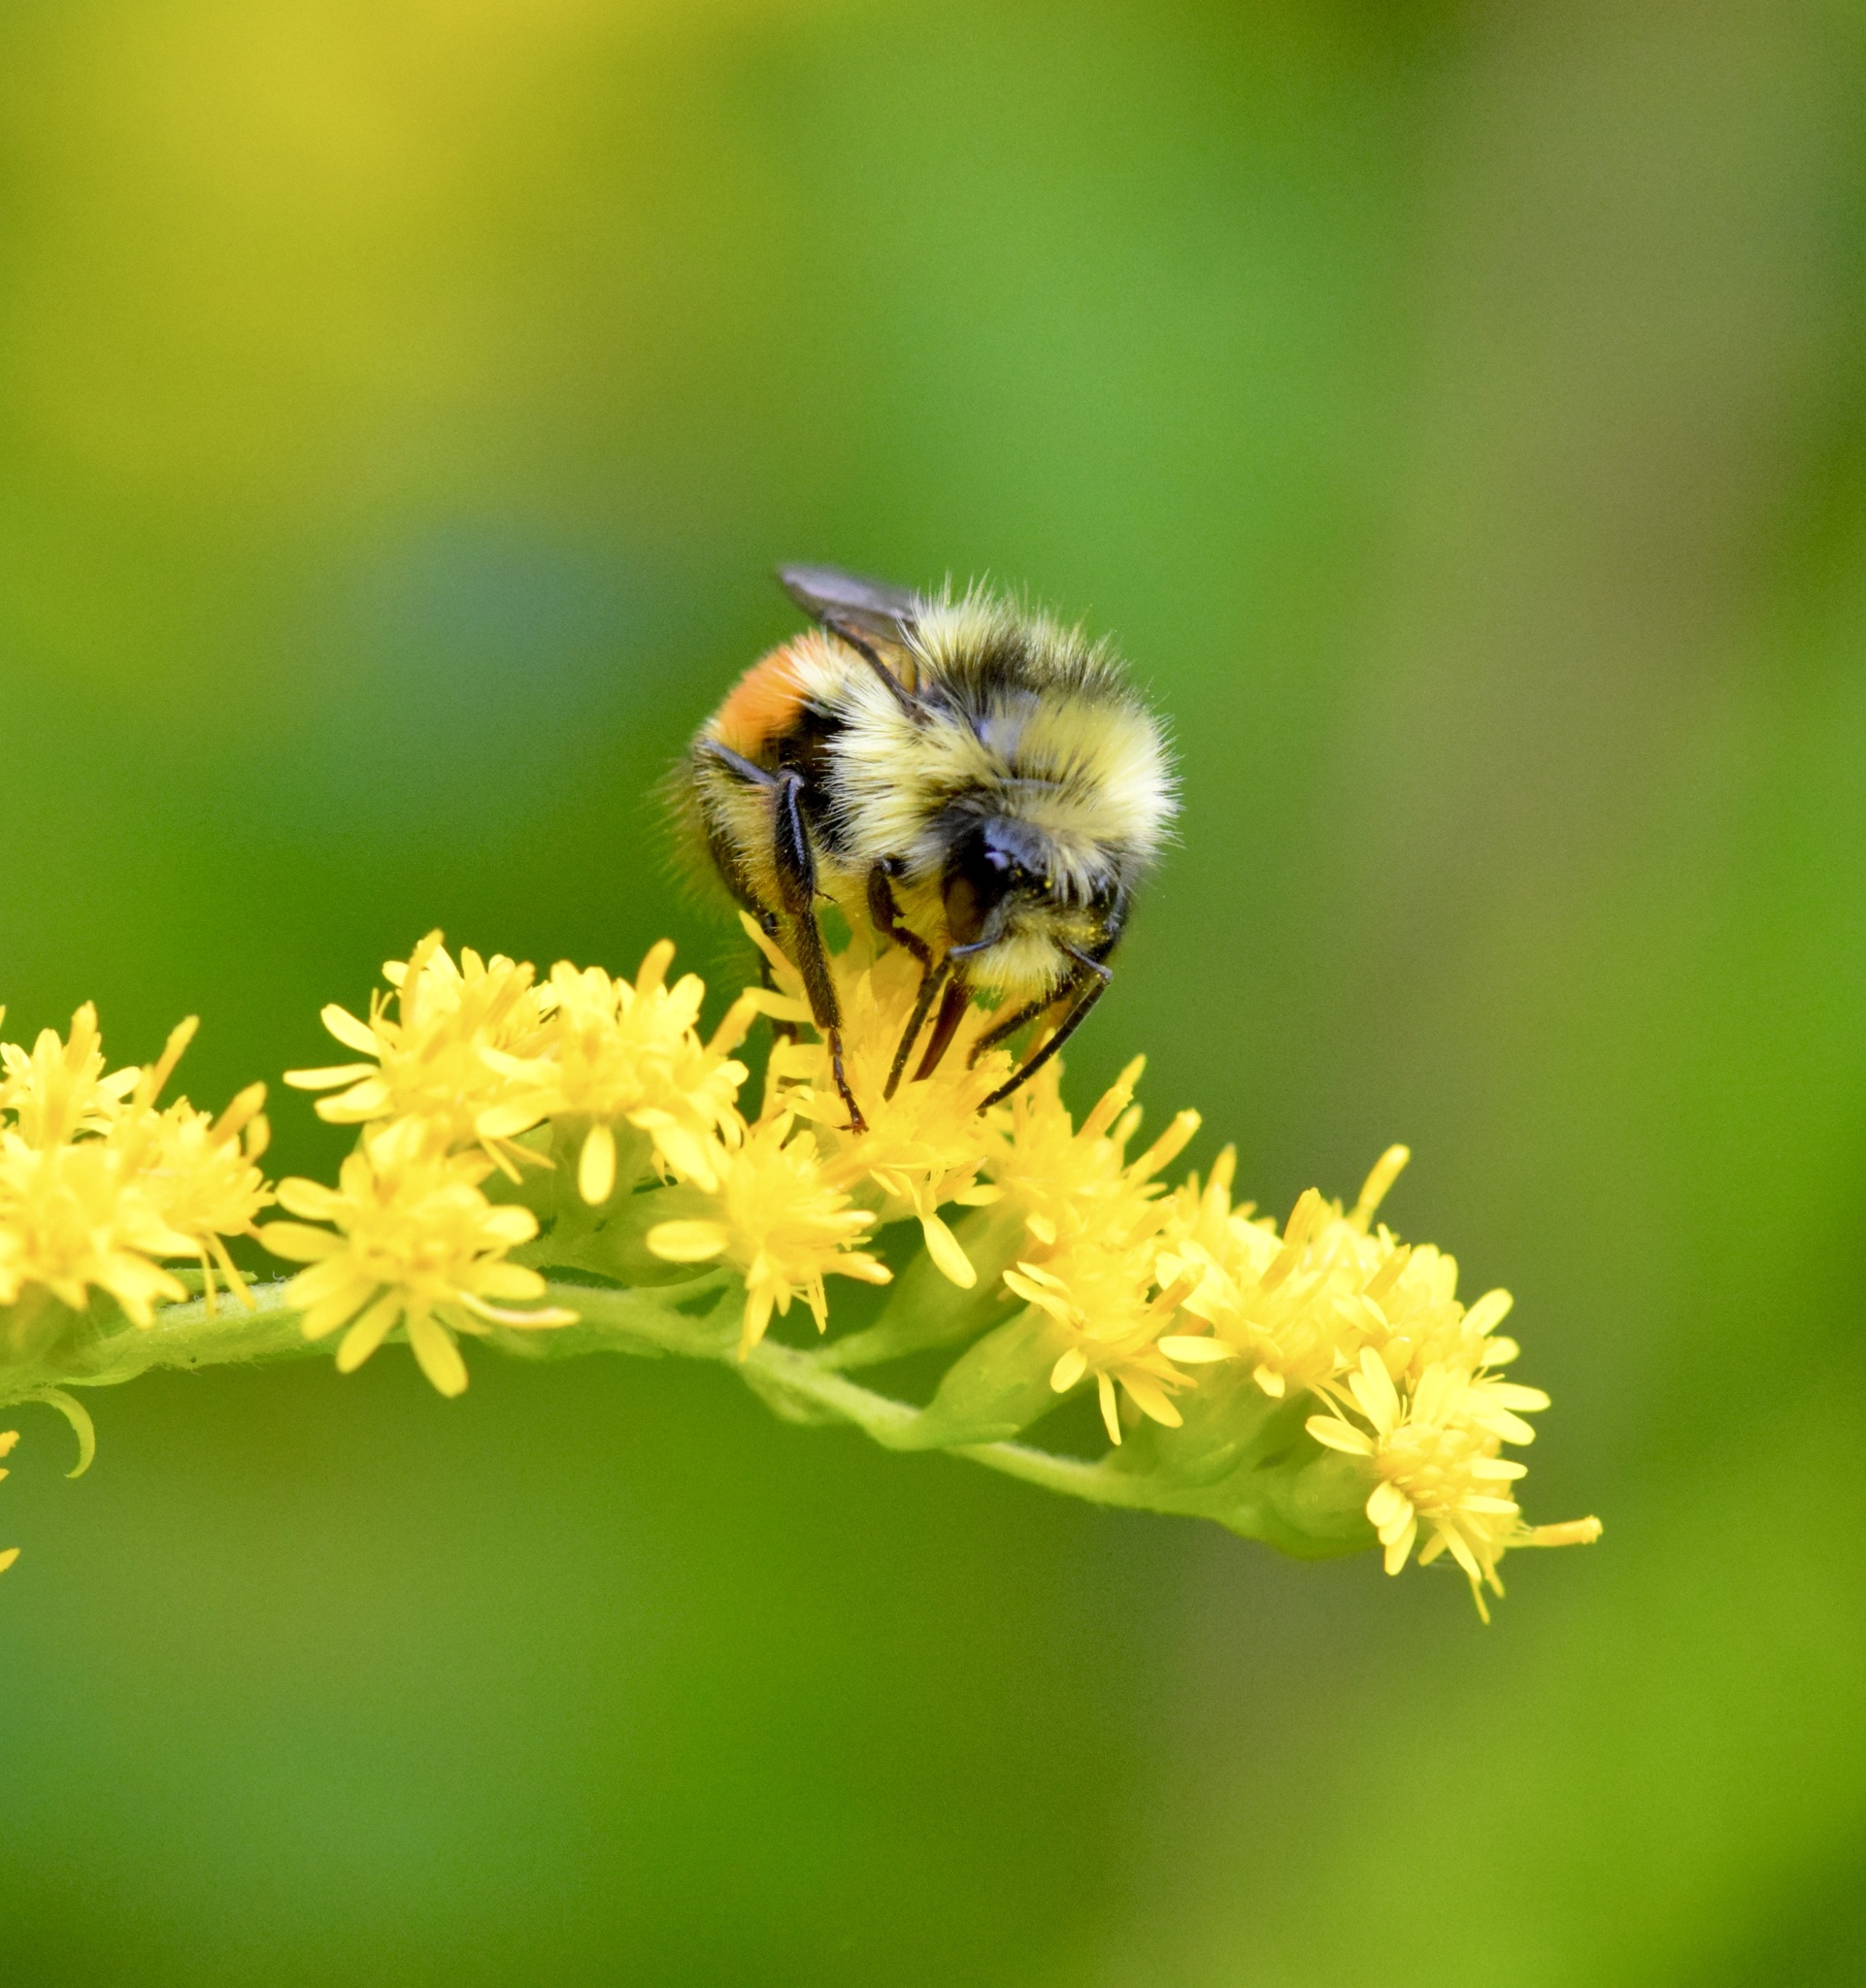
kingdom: Animalia
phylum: Arthropoda
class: Insecta
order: Hymenoptera
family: Apidae
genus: Bombus
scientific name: Bombus ternarius
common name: Tri-colored bumble bee
